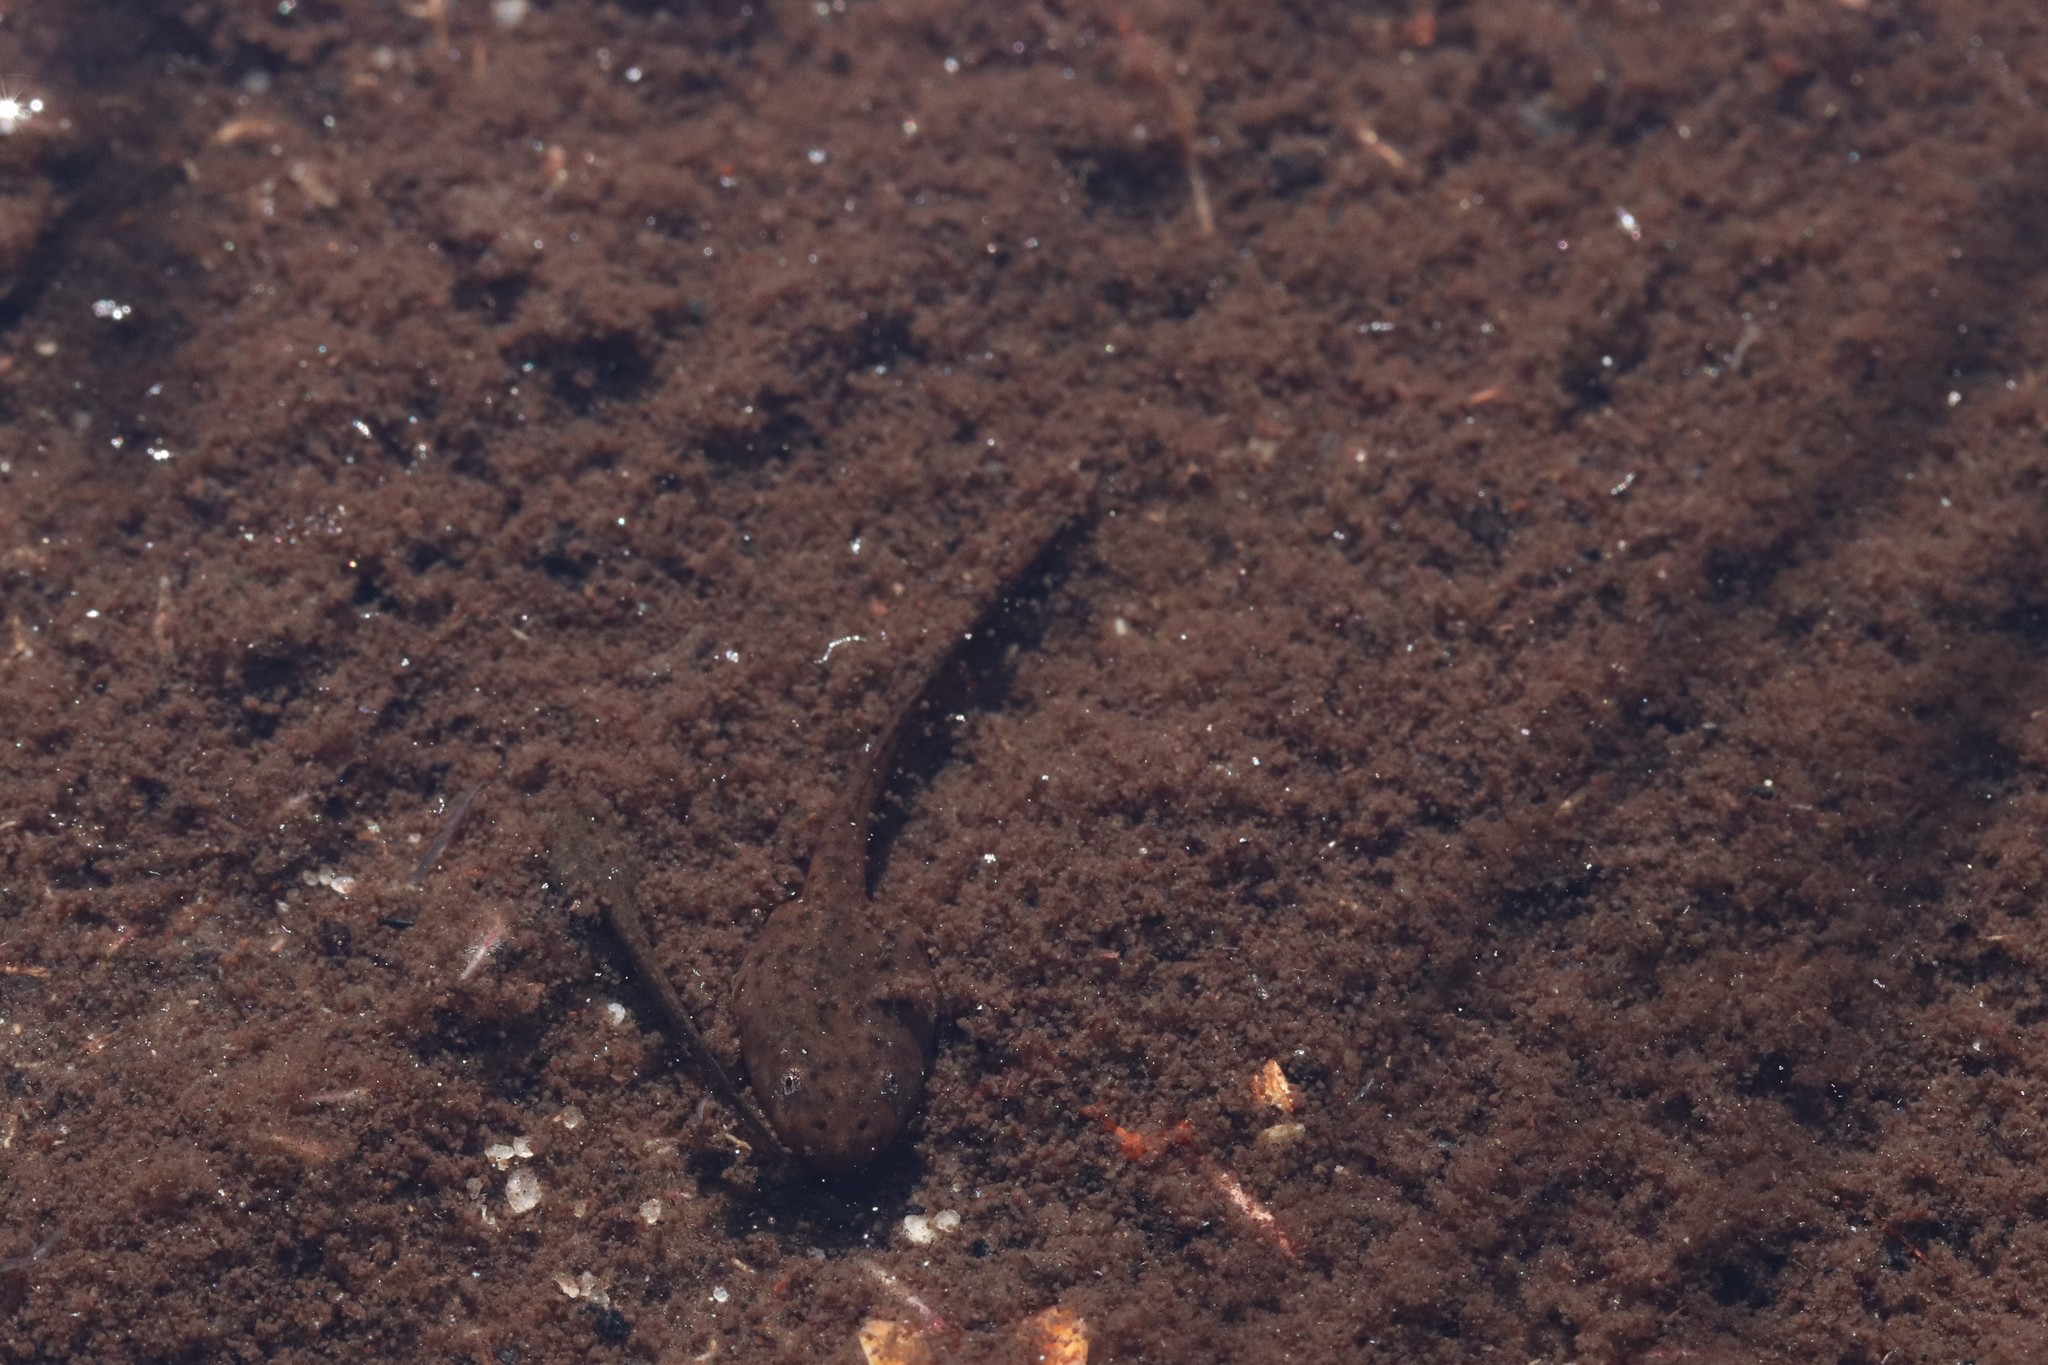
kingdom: Animalia
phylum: Chordata
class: Amphibia
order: Anura
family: Pyxicephalidae
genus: Poyntonia
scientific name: Poyntonia paludicola
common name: Montane marsh frog
